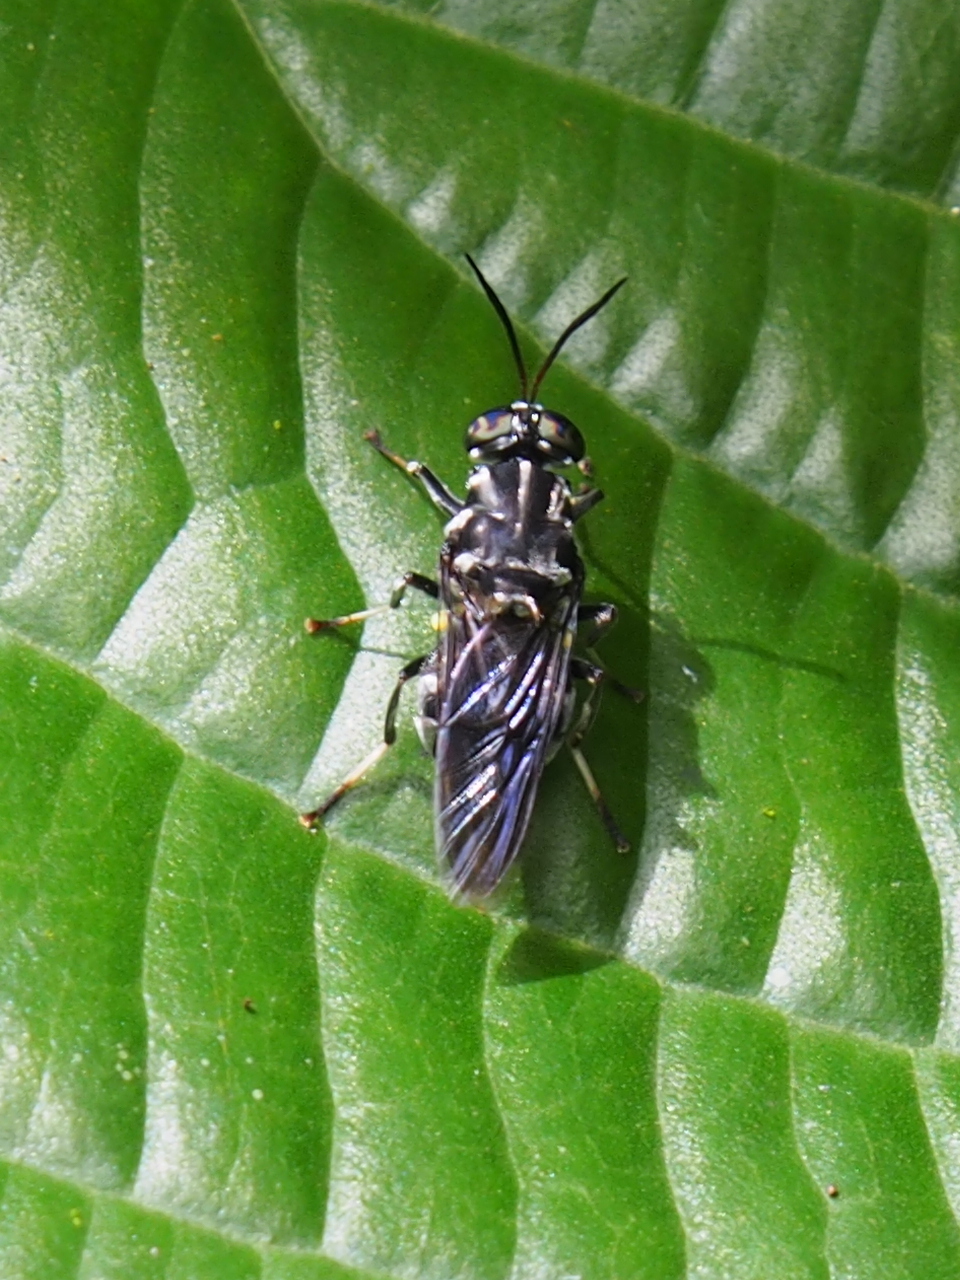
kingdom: Animalia
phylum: Arthropoda
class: Insecta
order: Diptera
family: Stratiomyidae
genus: Cyphomyia
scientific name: Cyphomyia albitarsis
